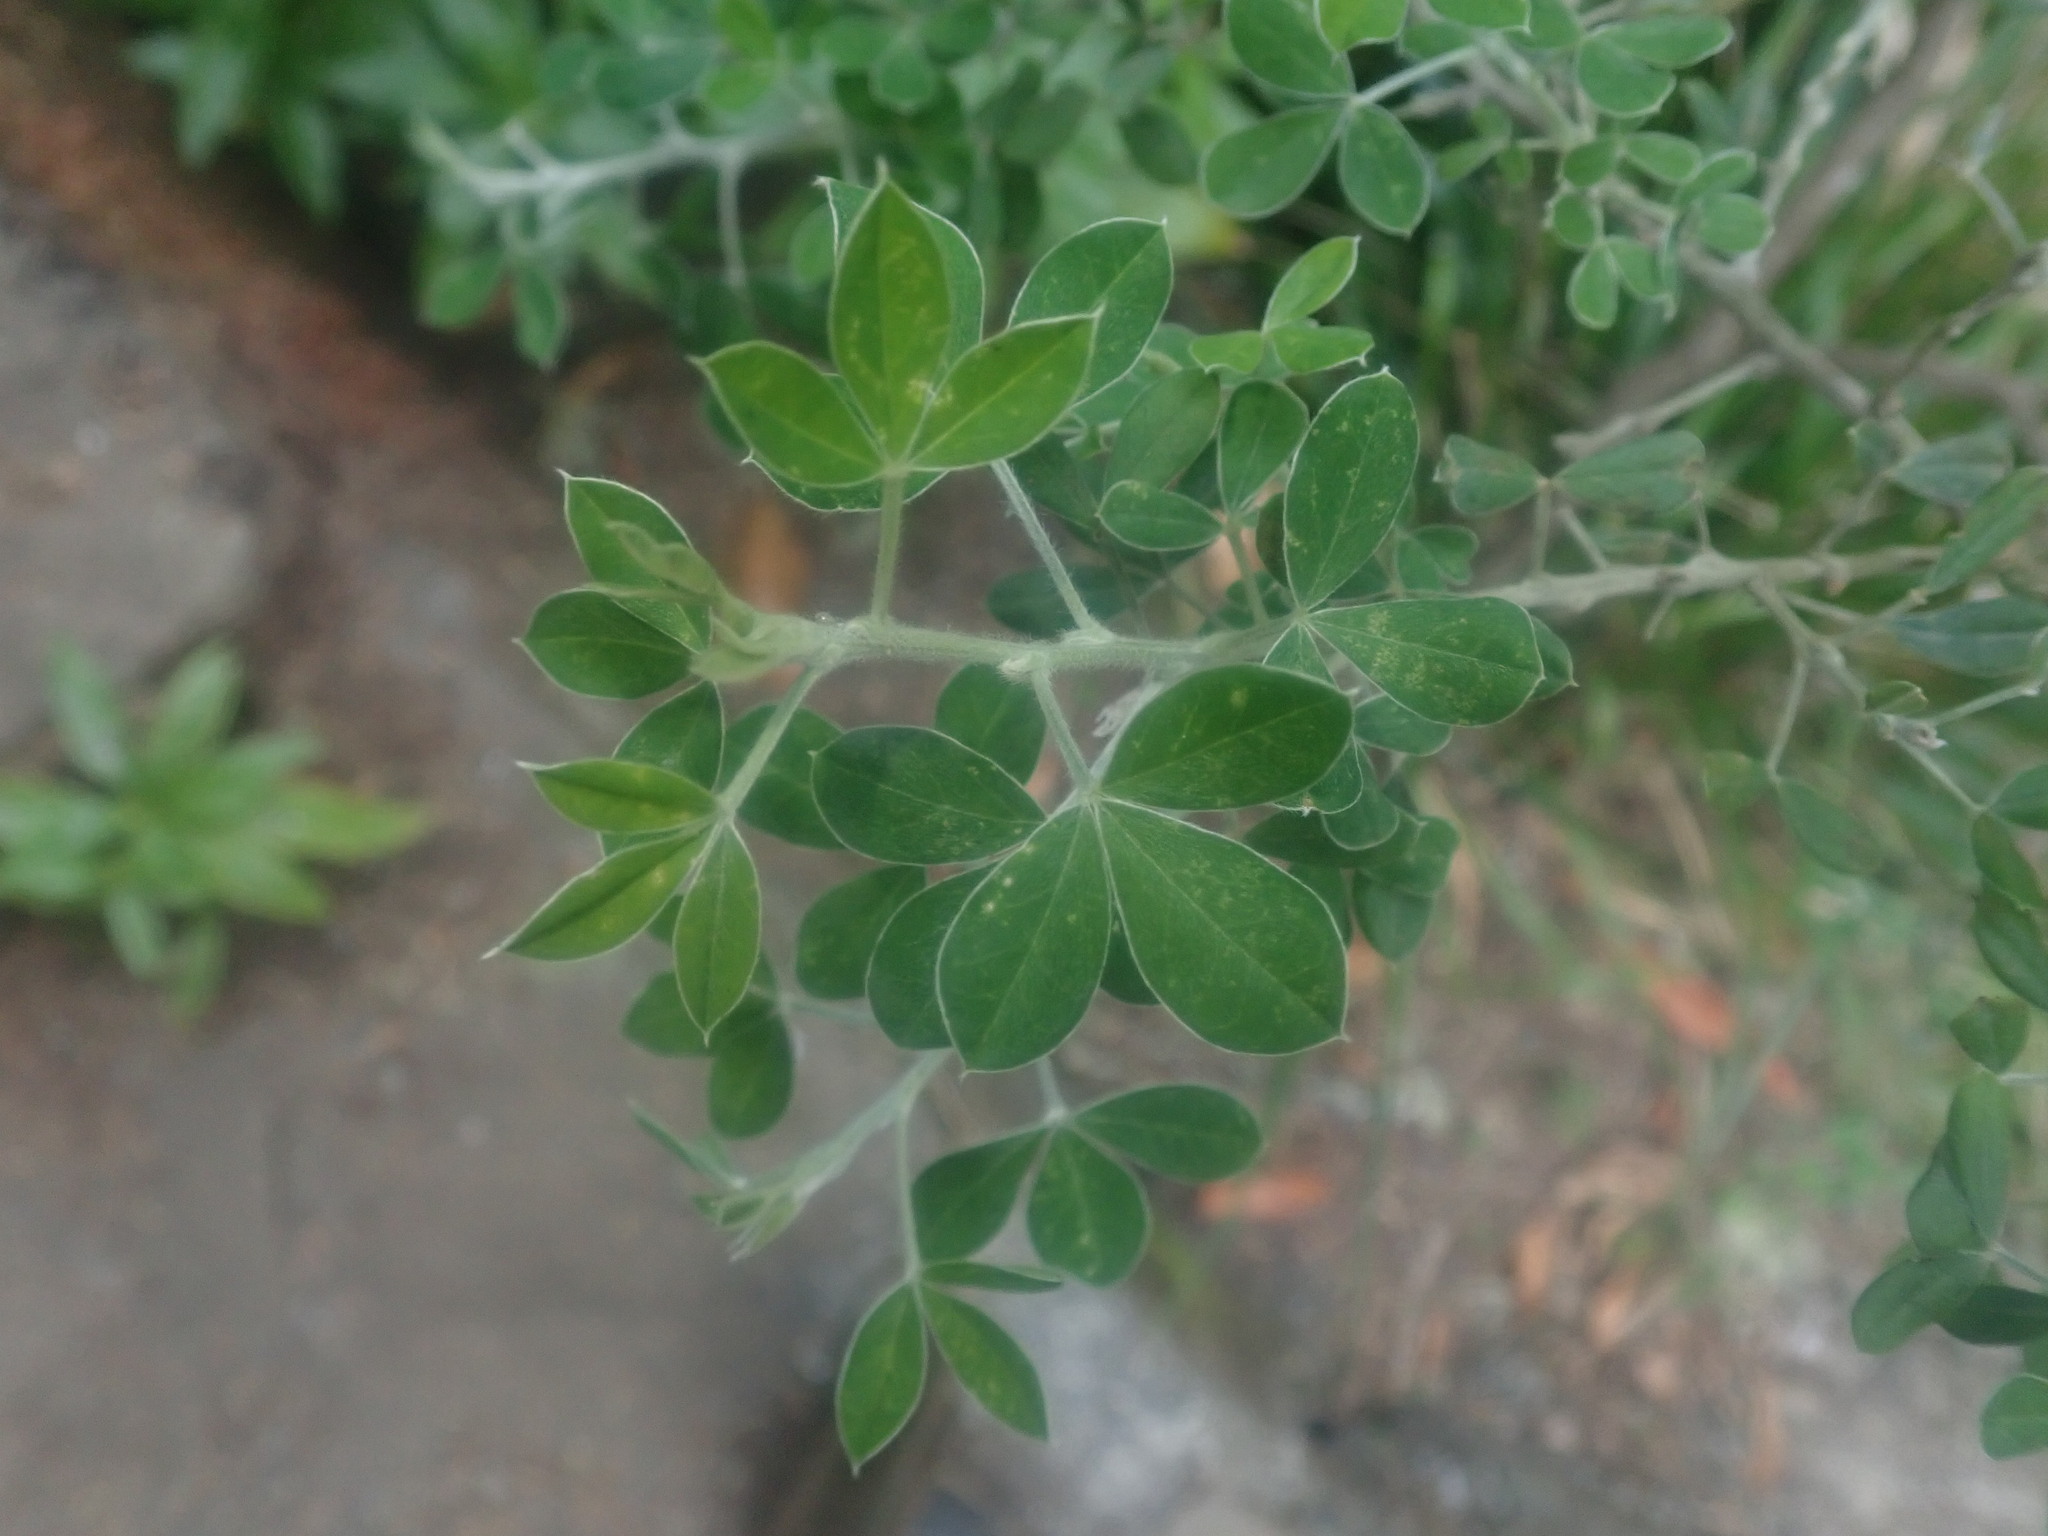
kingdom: Plantae
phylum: Tracheophyta
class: Magnoliopsida
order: Fabales
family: Fabaceae
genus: Genista
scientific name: Genista maderensis
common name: Madeira dyer's greenweed
